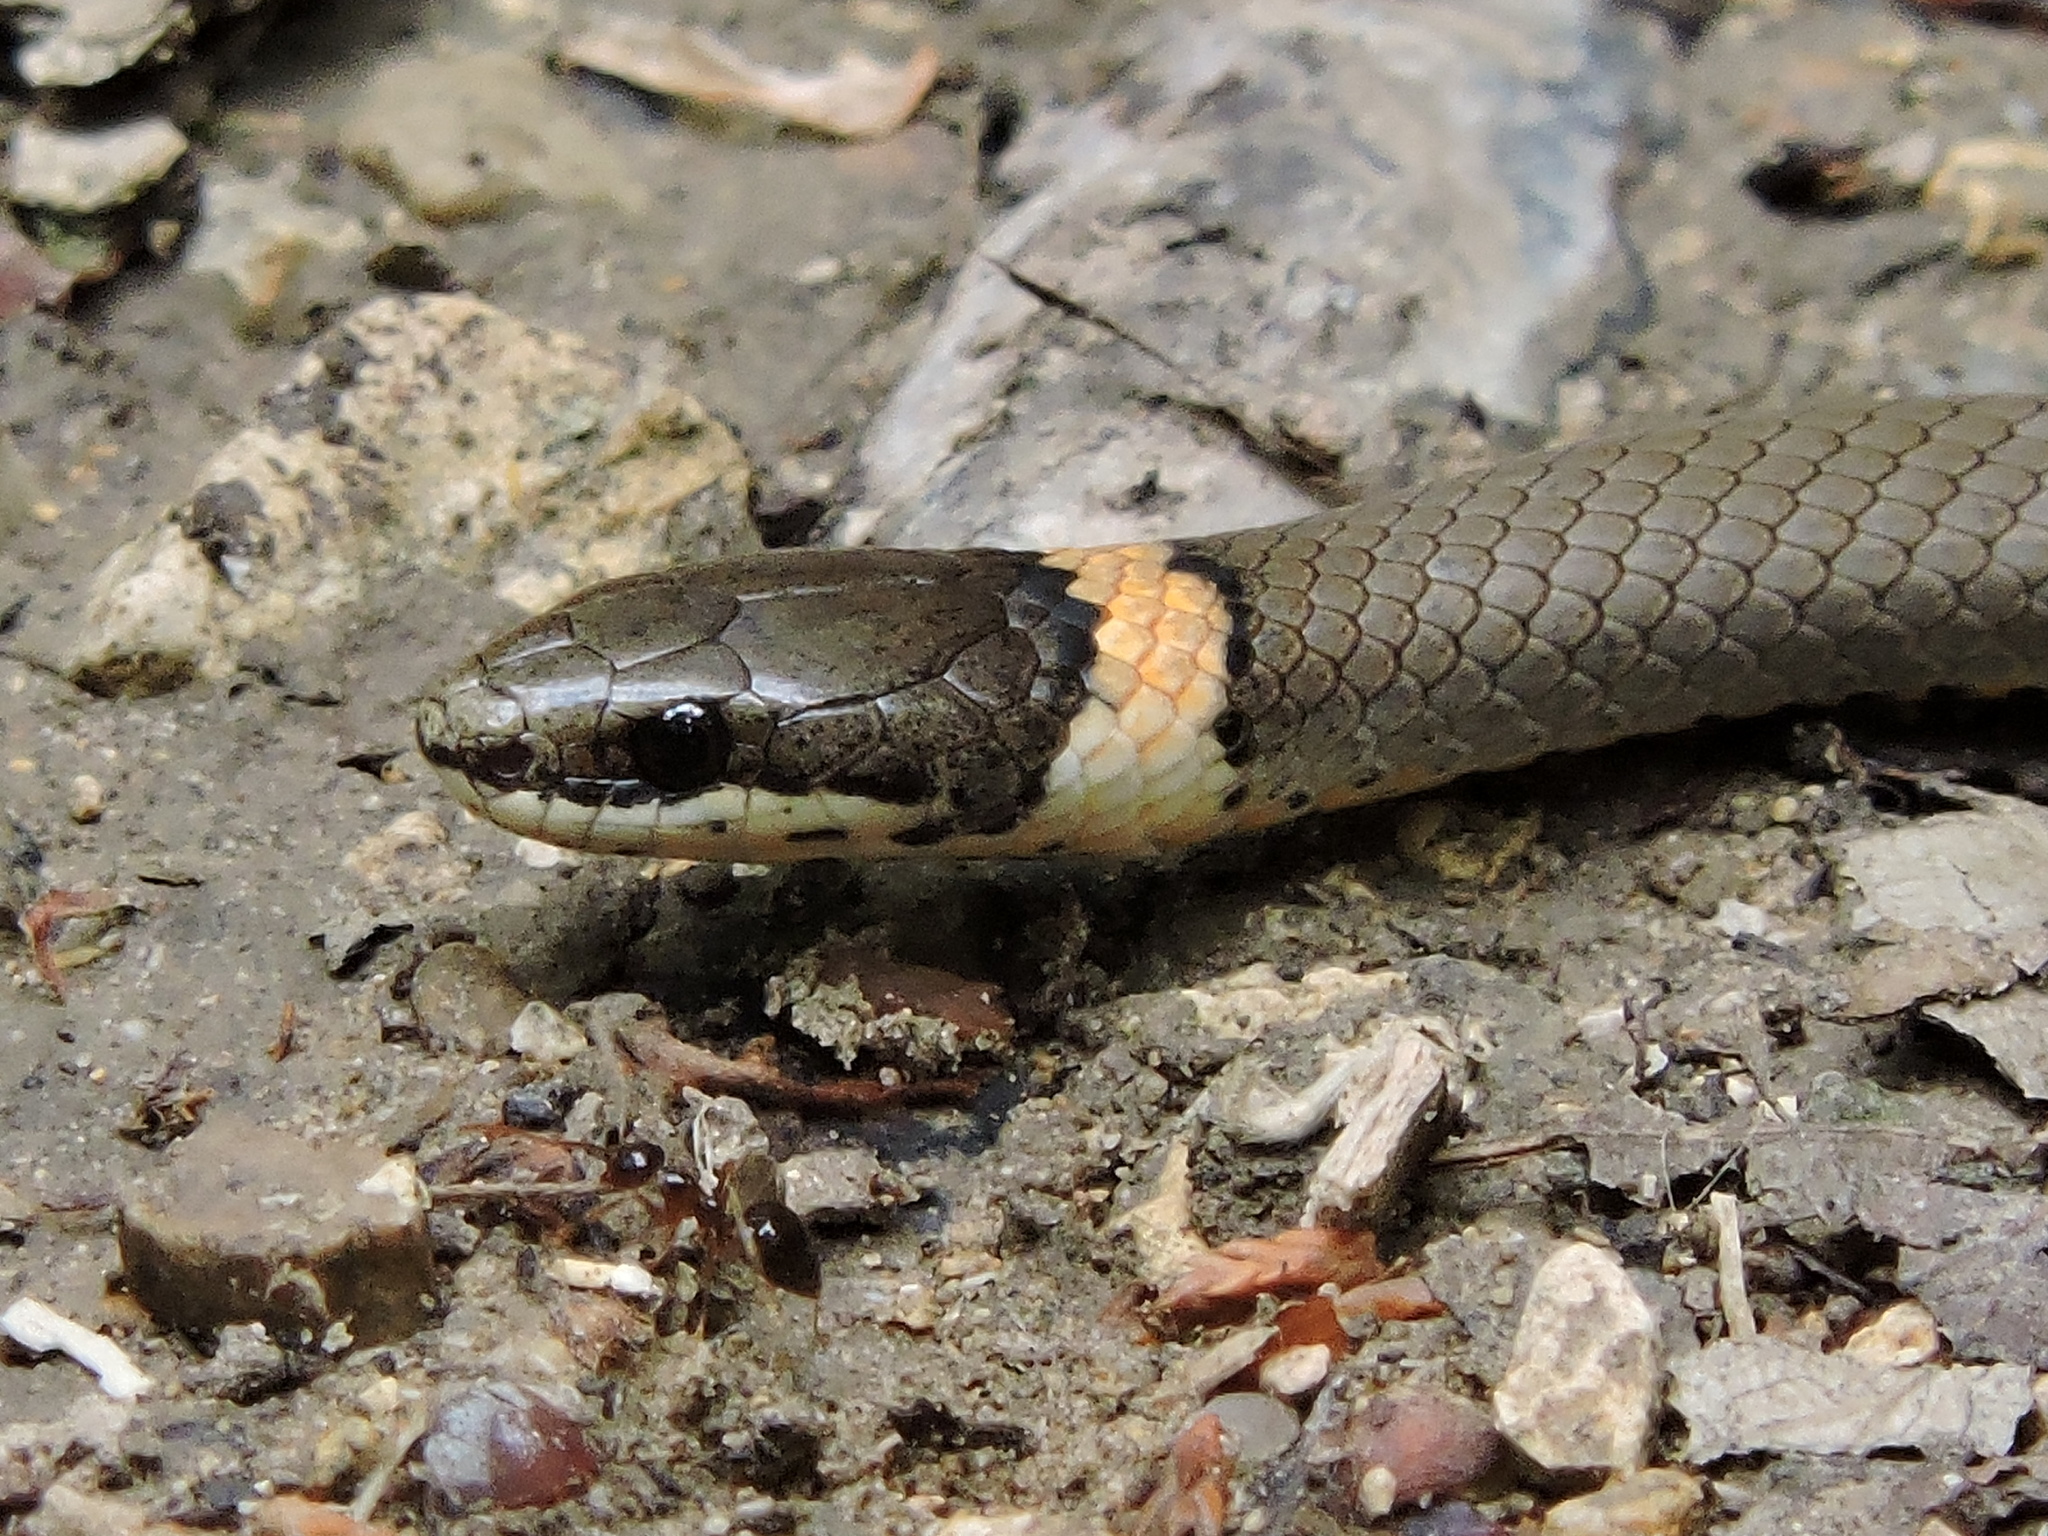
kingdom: Animalia
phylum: Chordata
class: Squamata
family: Colubridae
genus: Diadophis
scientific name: Diadophis punctatus
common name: Ringneck snake
